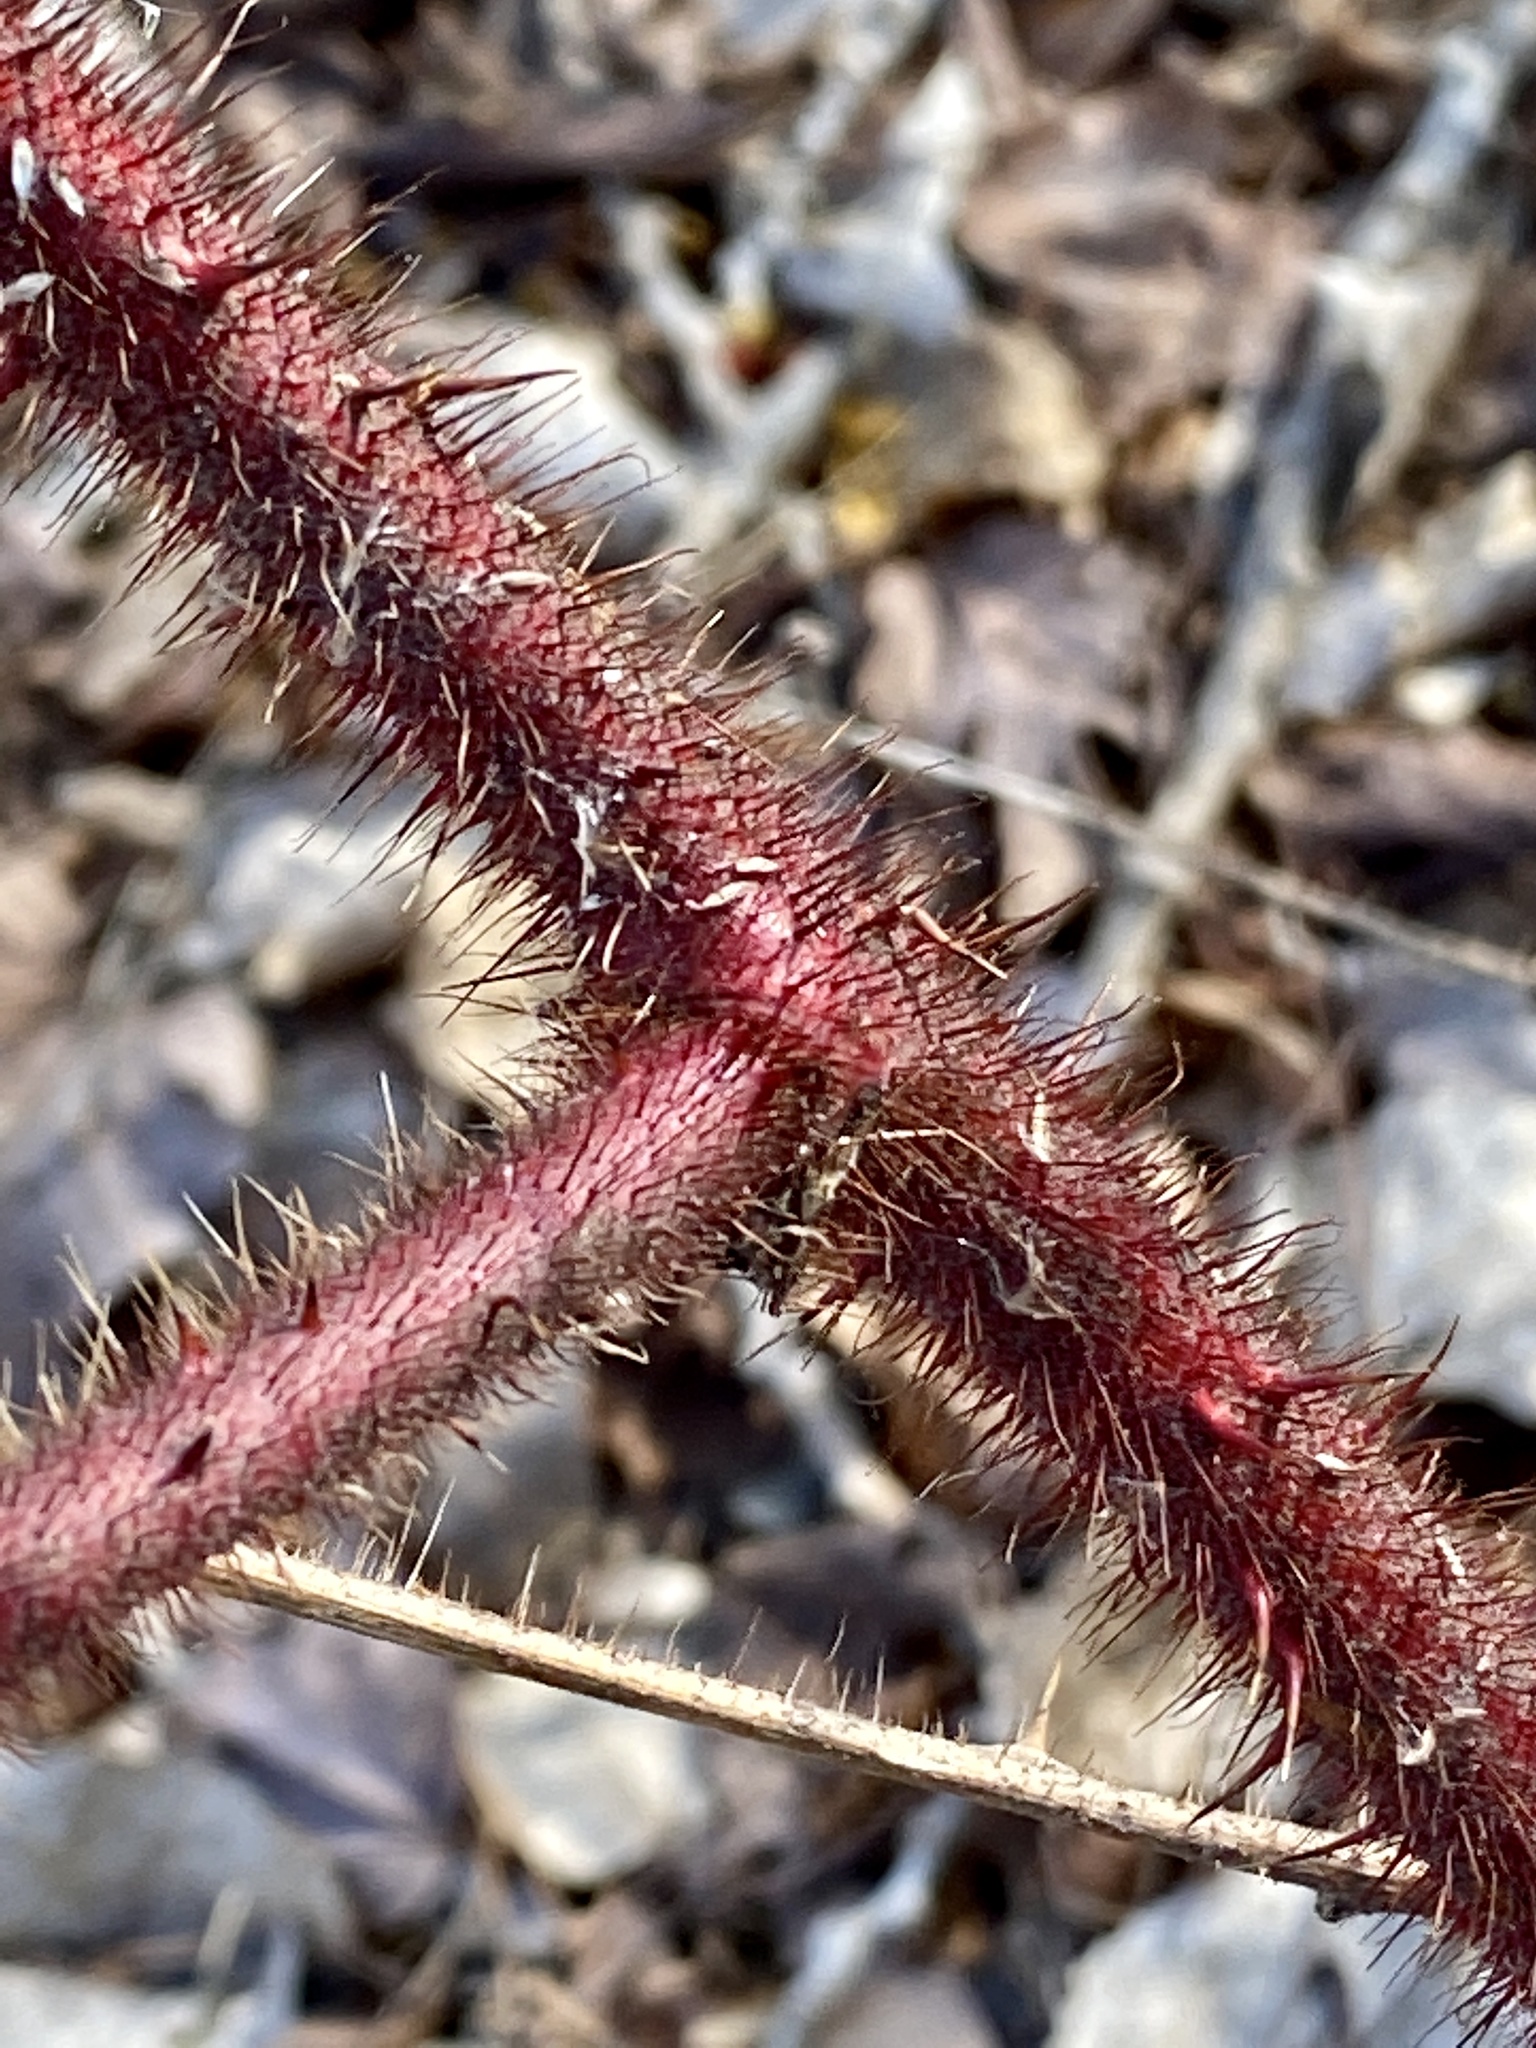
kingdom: Plantae
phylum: Tracheophyta
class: Magnoliopsida
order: Rosales
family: Rosaceae
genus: Rubus
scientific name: Rubus phoenicolasius
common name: Japanese wineberry
